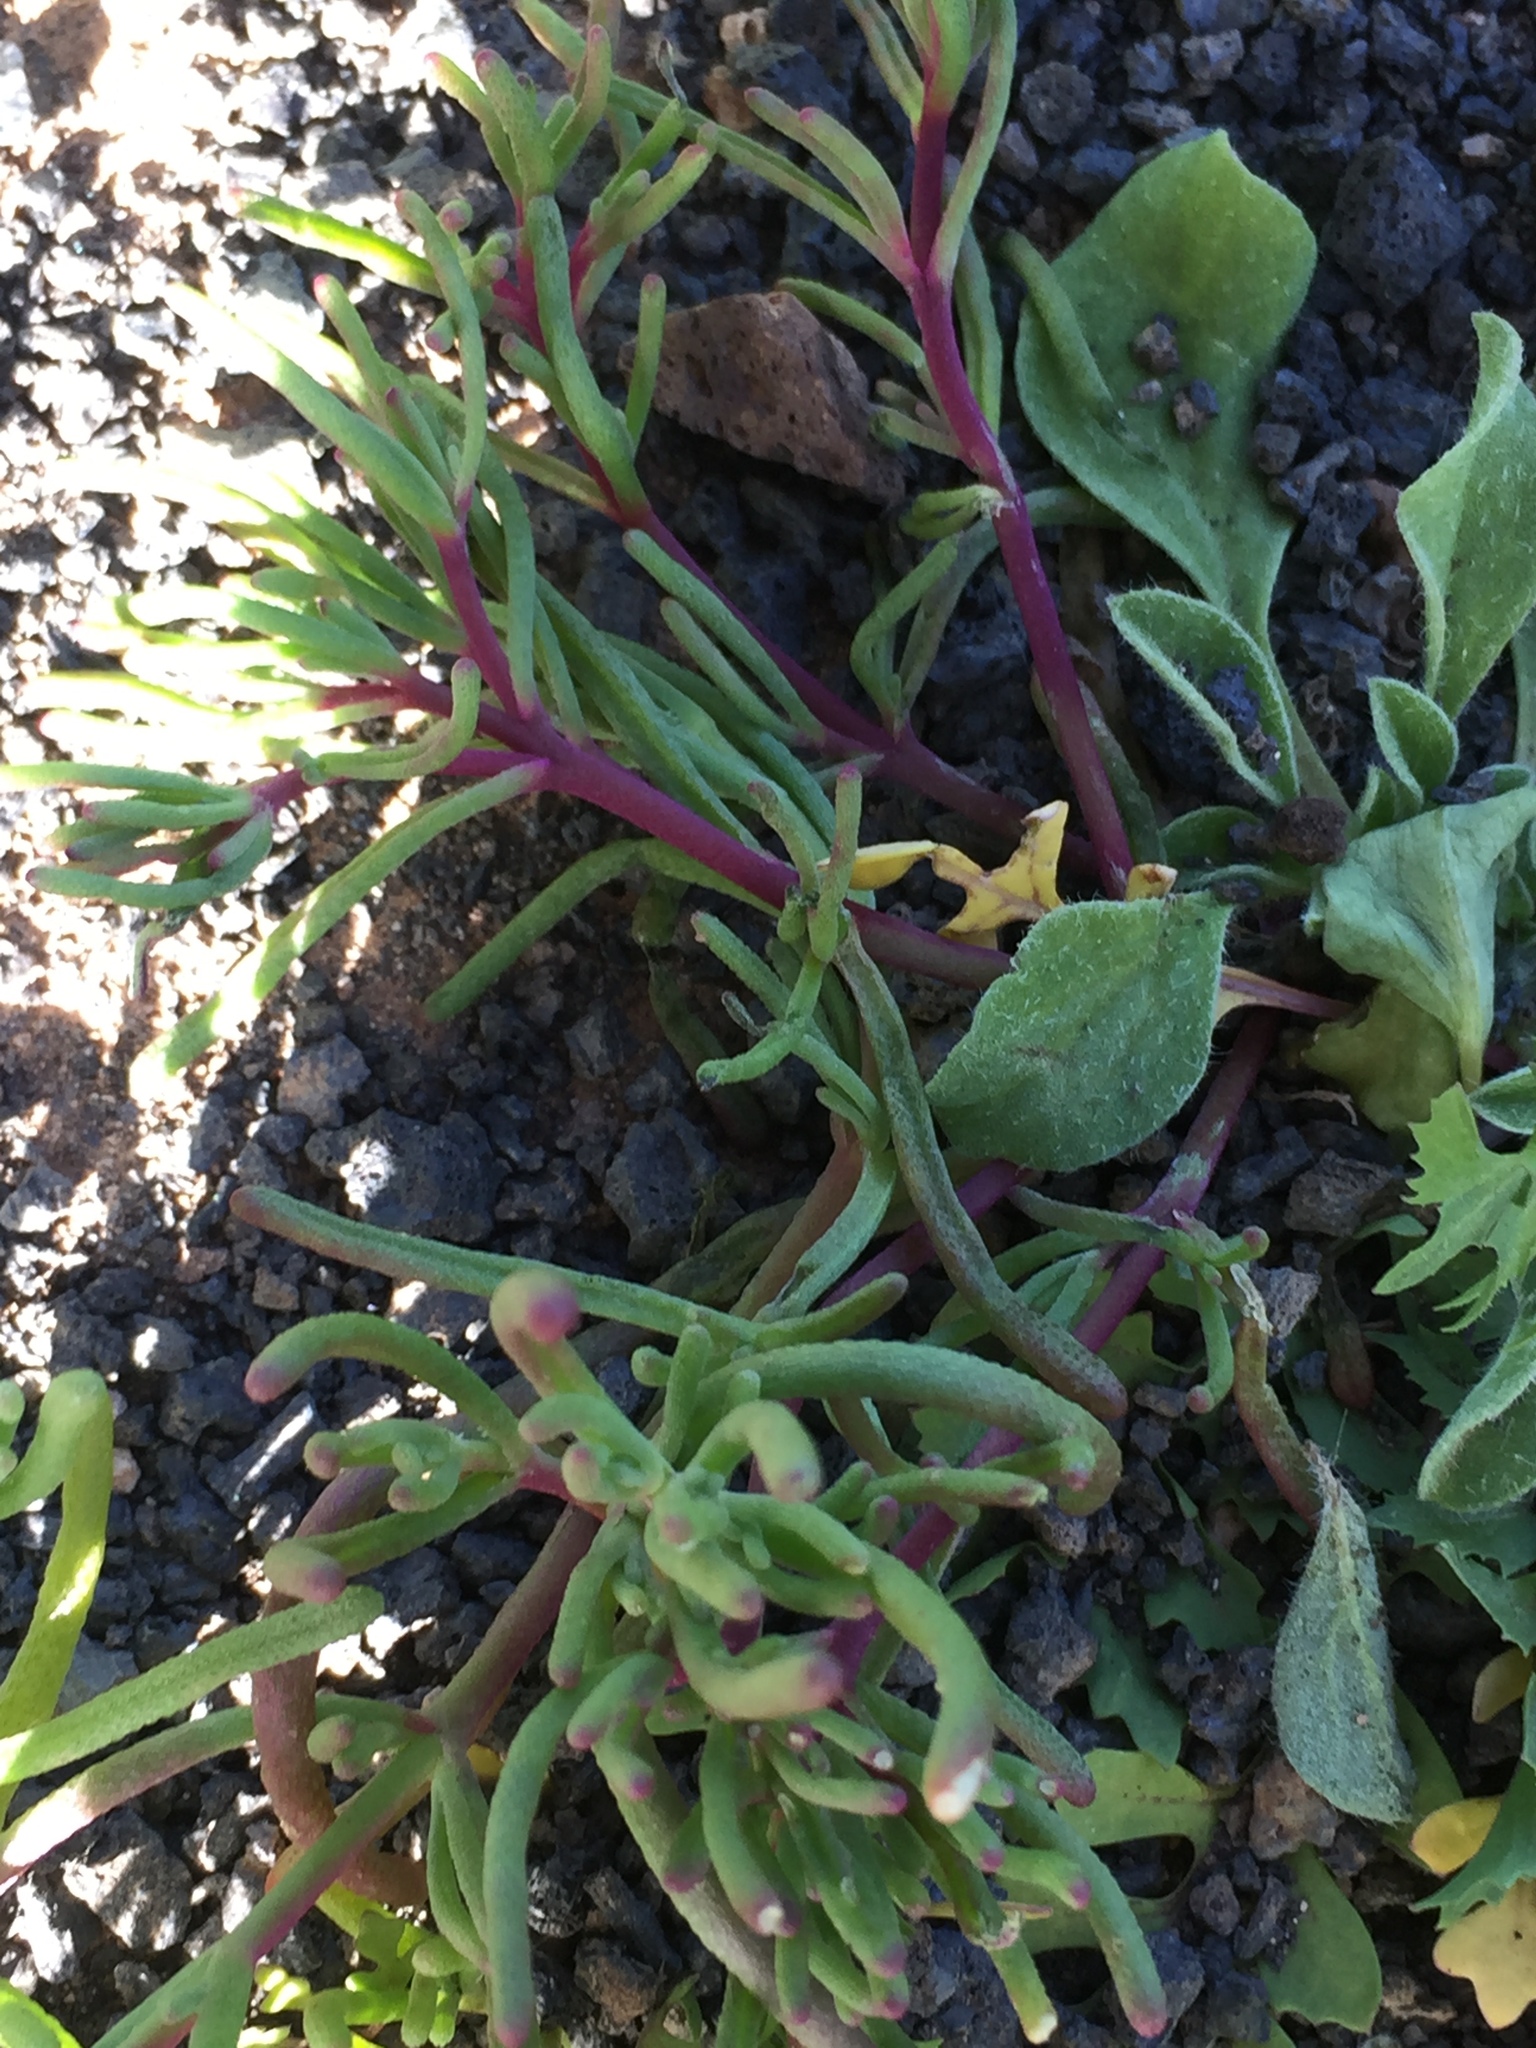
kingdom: Plantae
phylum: Tracheophyta
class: Magnoliopsida
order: Caryophyllales
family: Aizoaceae
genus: Mesembryanthemum
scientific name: Mesembryanthemum nodiflorum
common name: Slenderleaf iceplant
